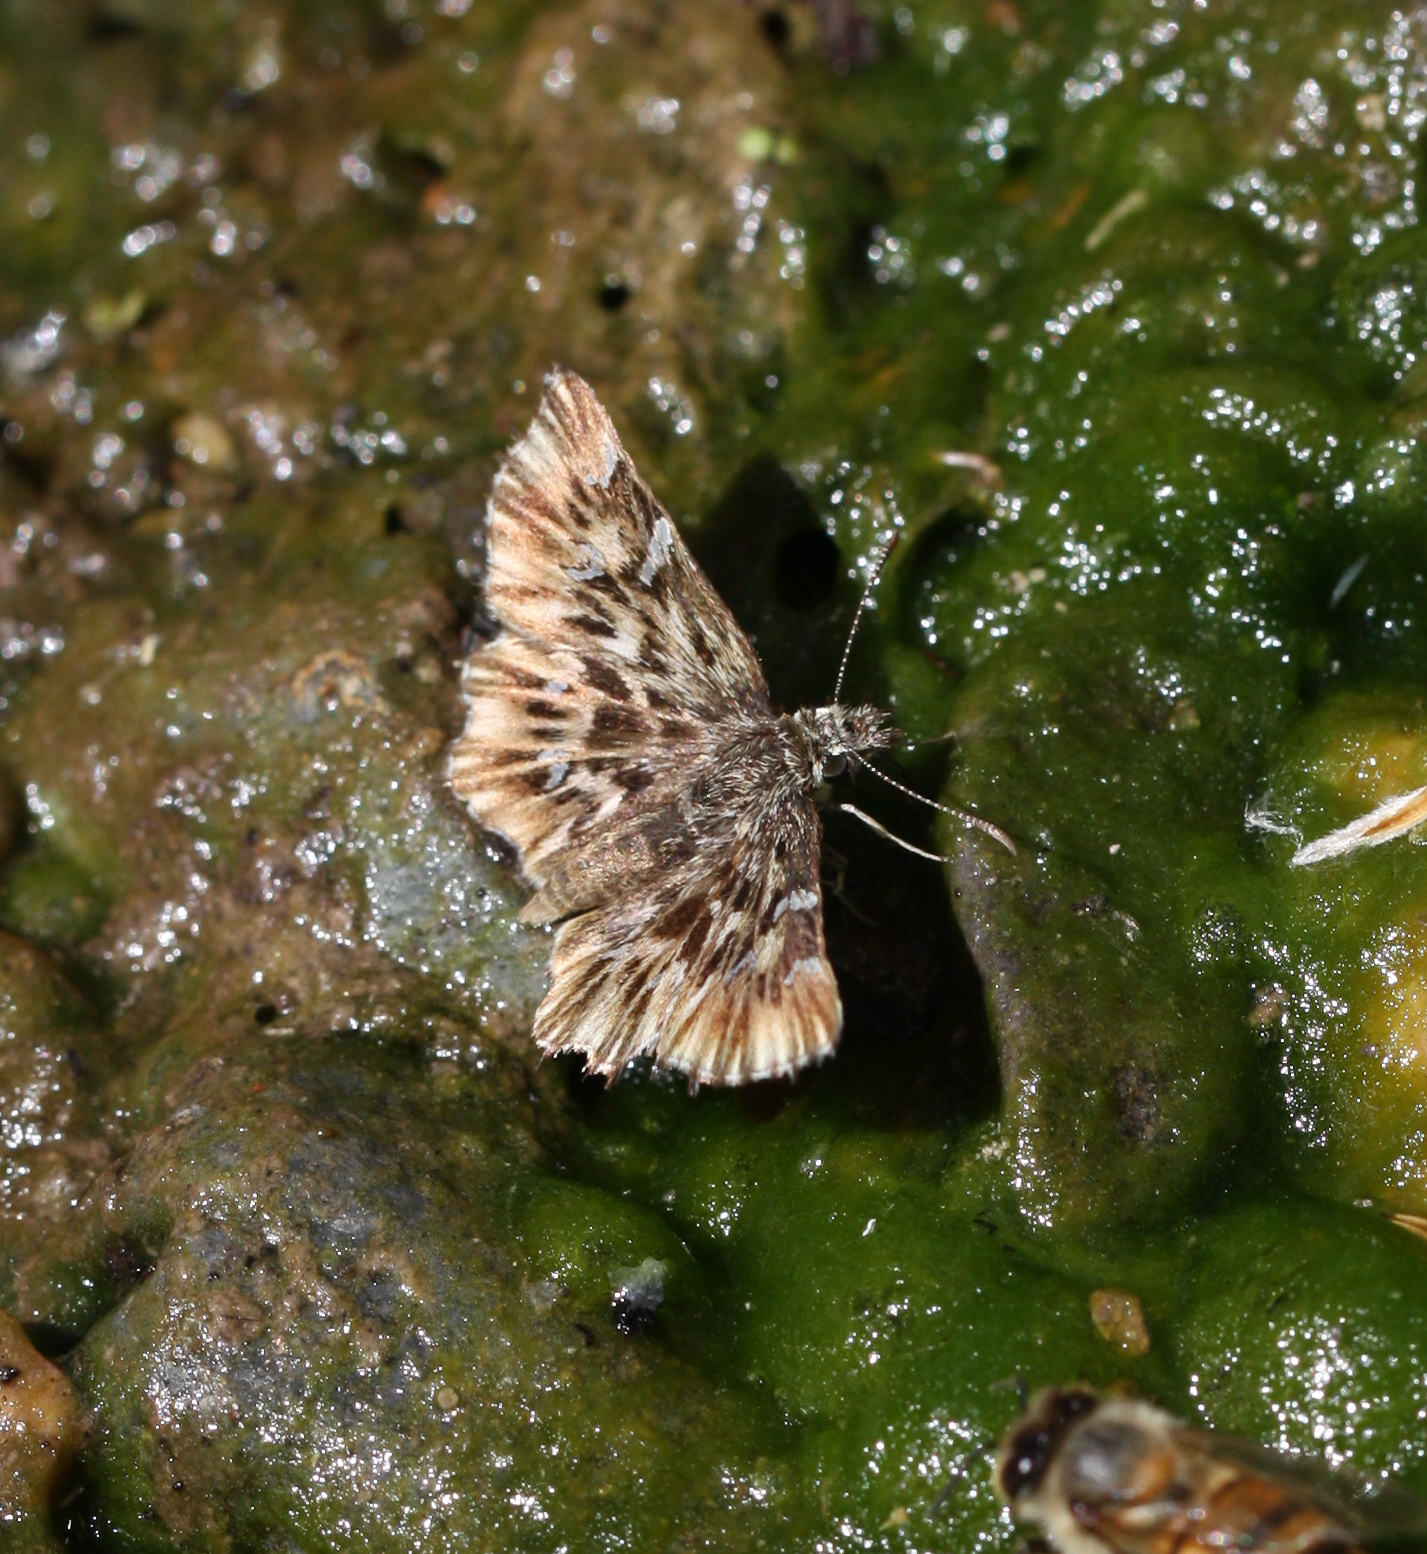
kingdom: Animalia
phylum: Arthropoda
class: Insecta
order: Lepidoptera
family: Hesperiidae
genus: Celotes
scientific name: Celotes nessus
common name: Common streaky-skipper
